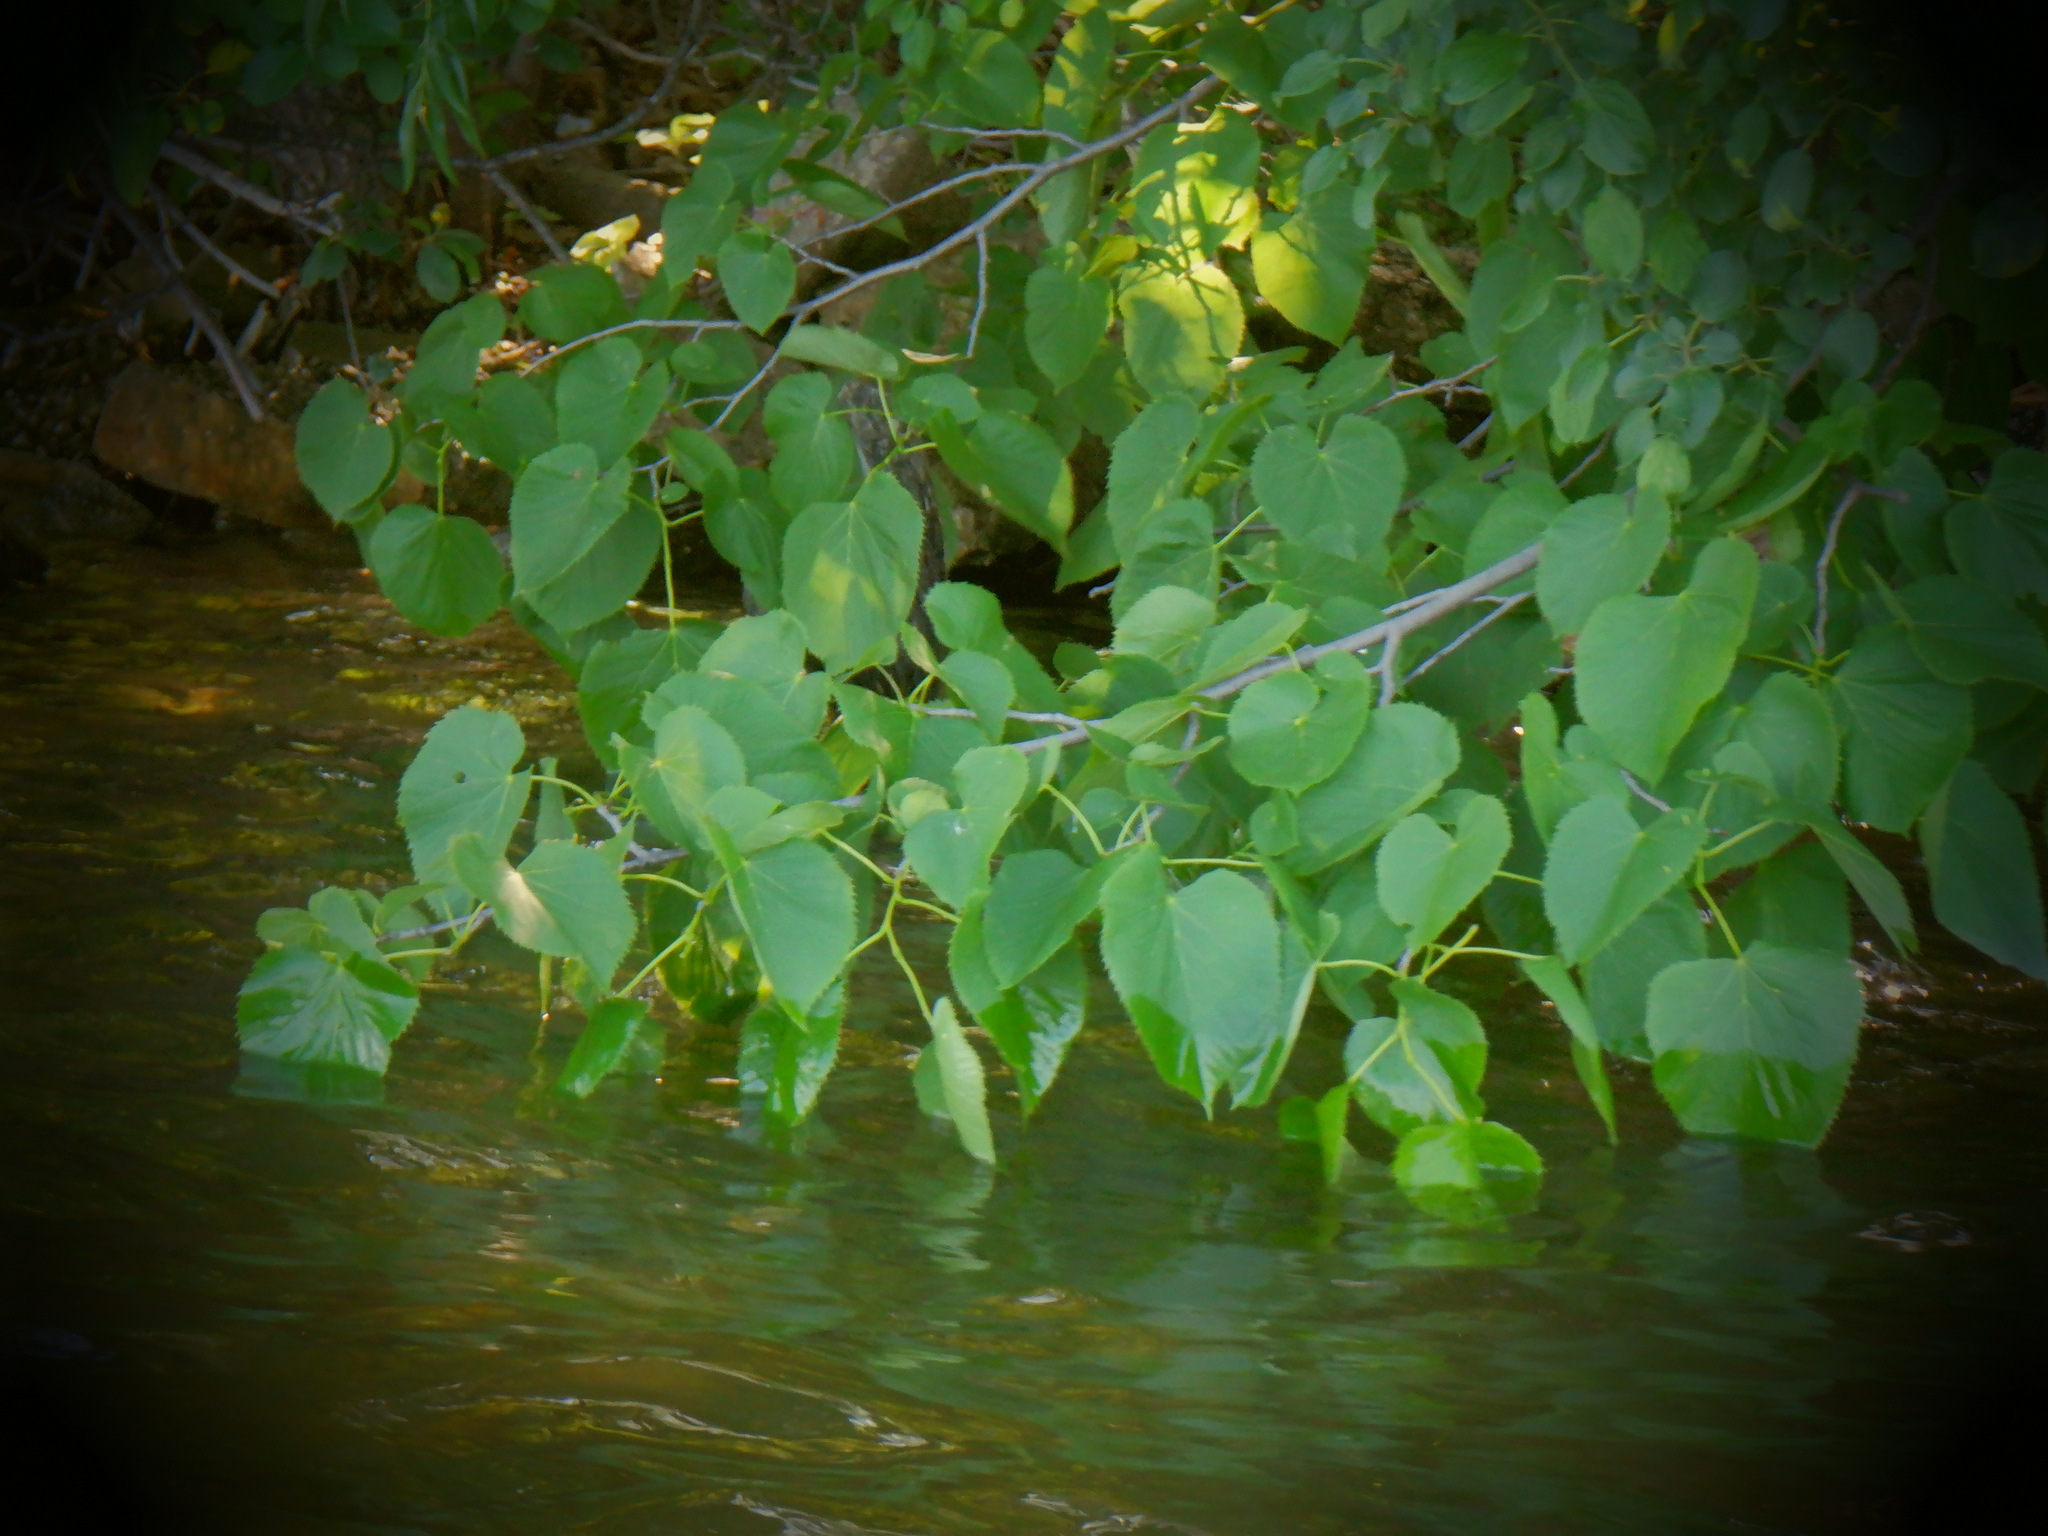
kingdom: Plantae
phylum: Tracheophyta
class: Magnoliopsida
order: Malvales
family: Malvaceae
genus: Tilia
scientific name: Tilia americana
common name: Basswood
